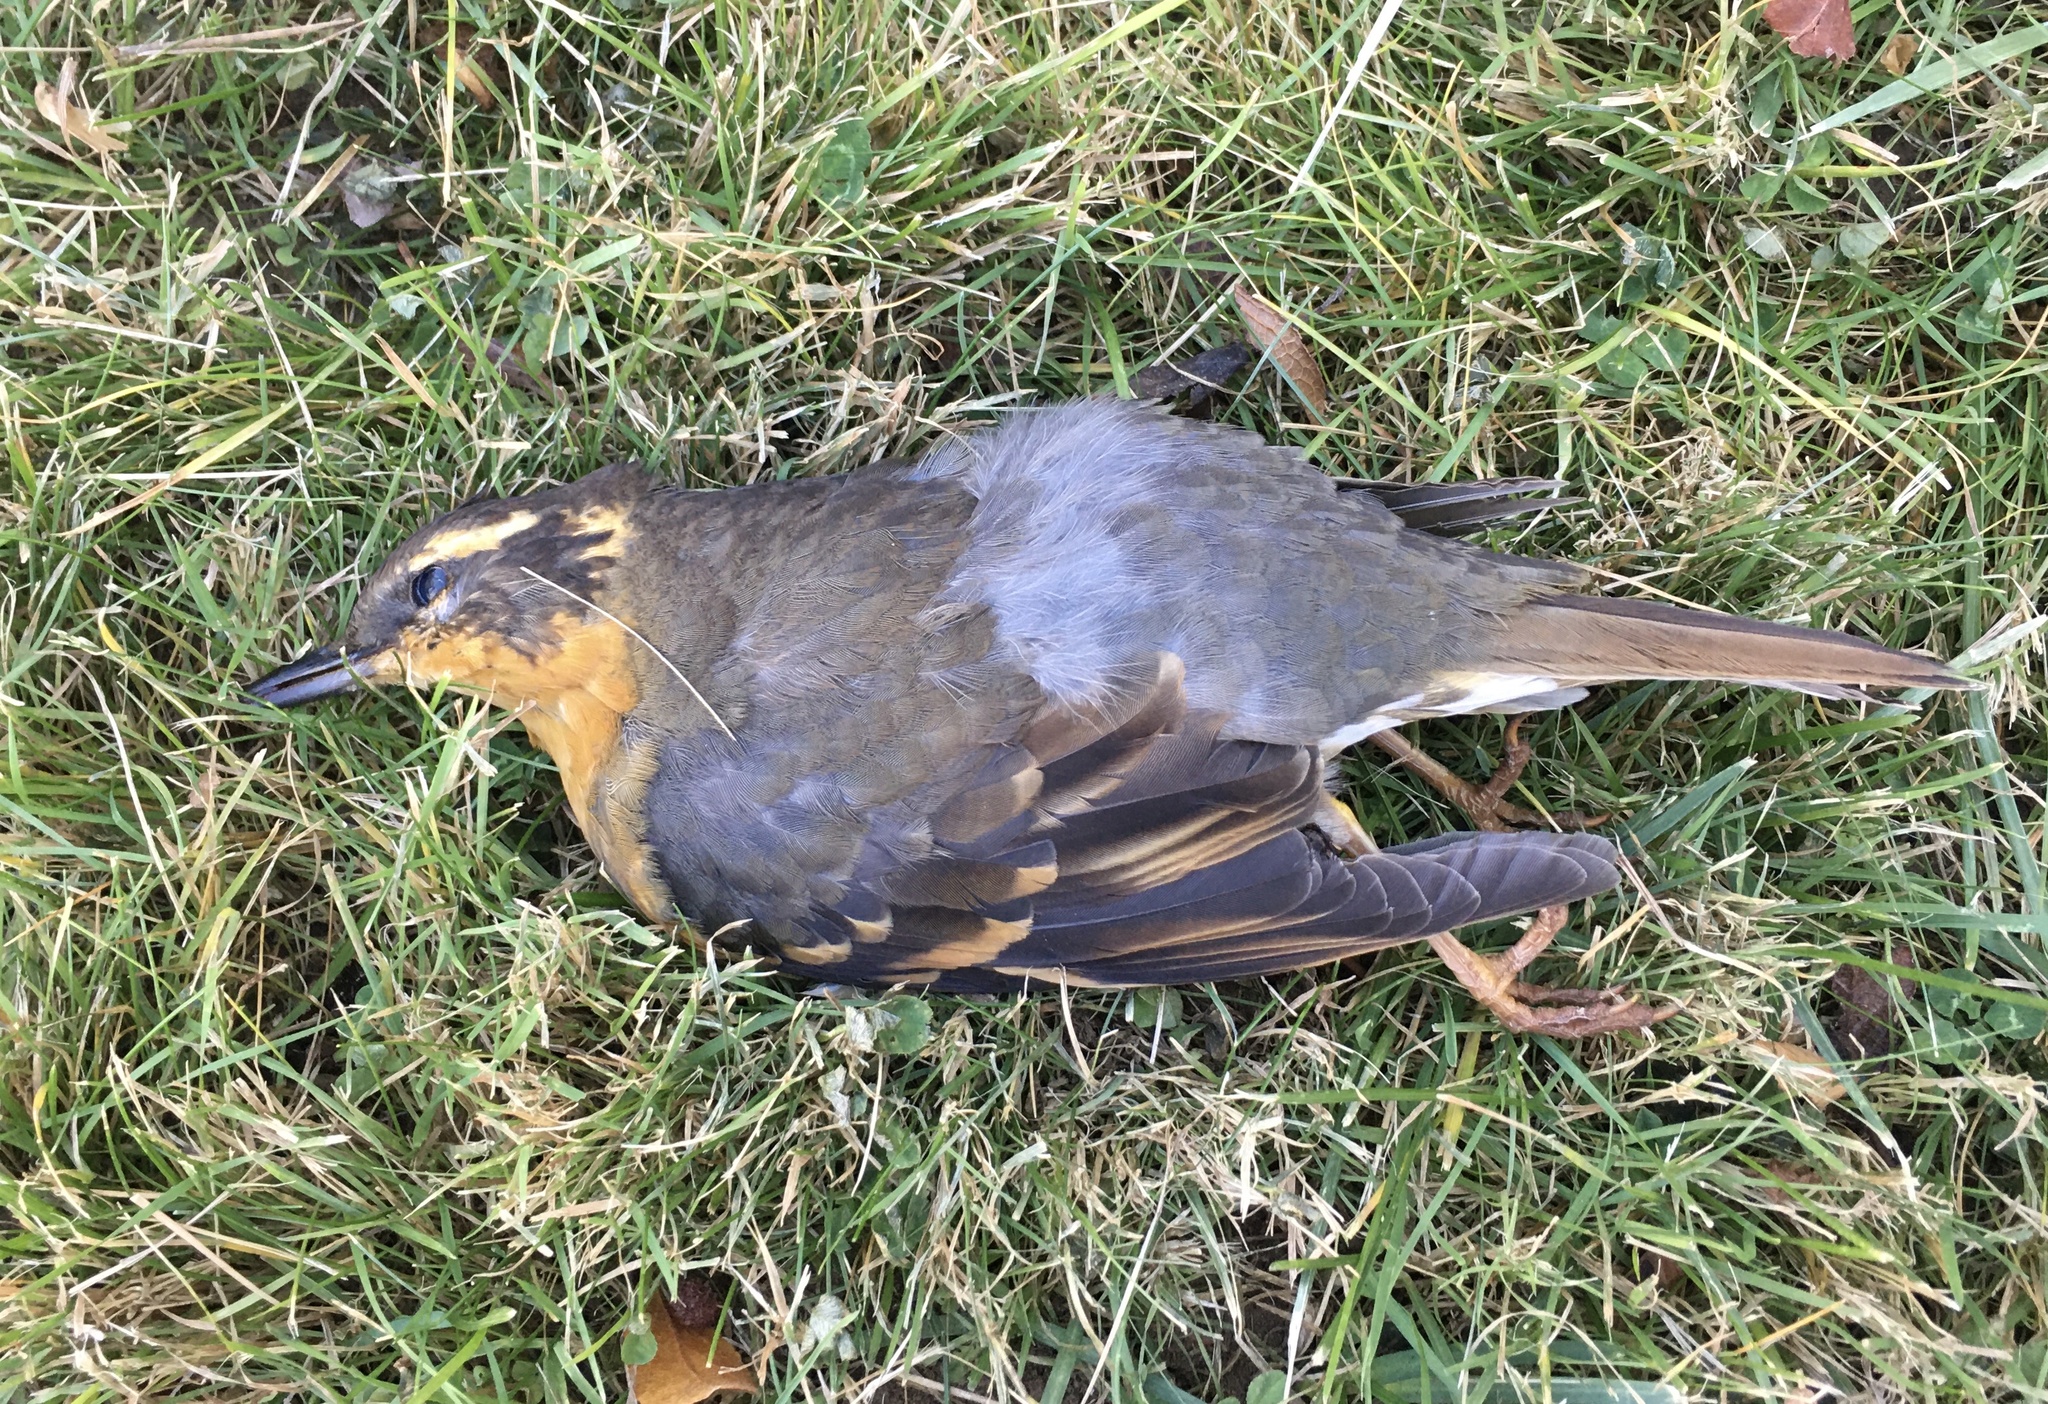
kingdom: Animalia
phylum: Chordata
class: Aves
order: Passeriformes
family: Turdidae
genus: Ixoreus
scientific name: Ixoreus naevius
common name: Varied thrush
